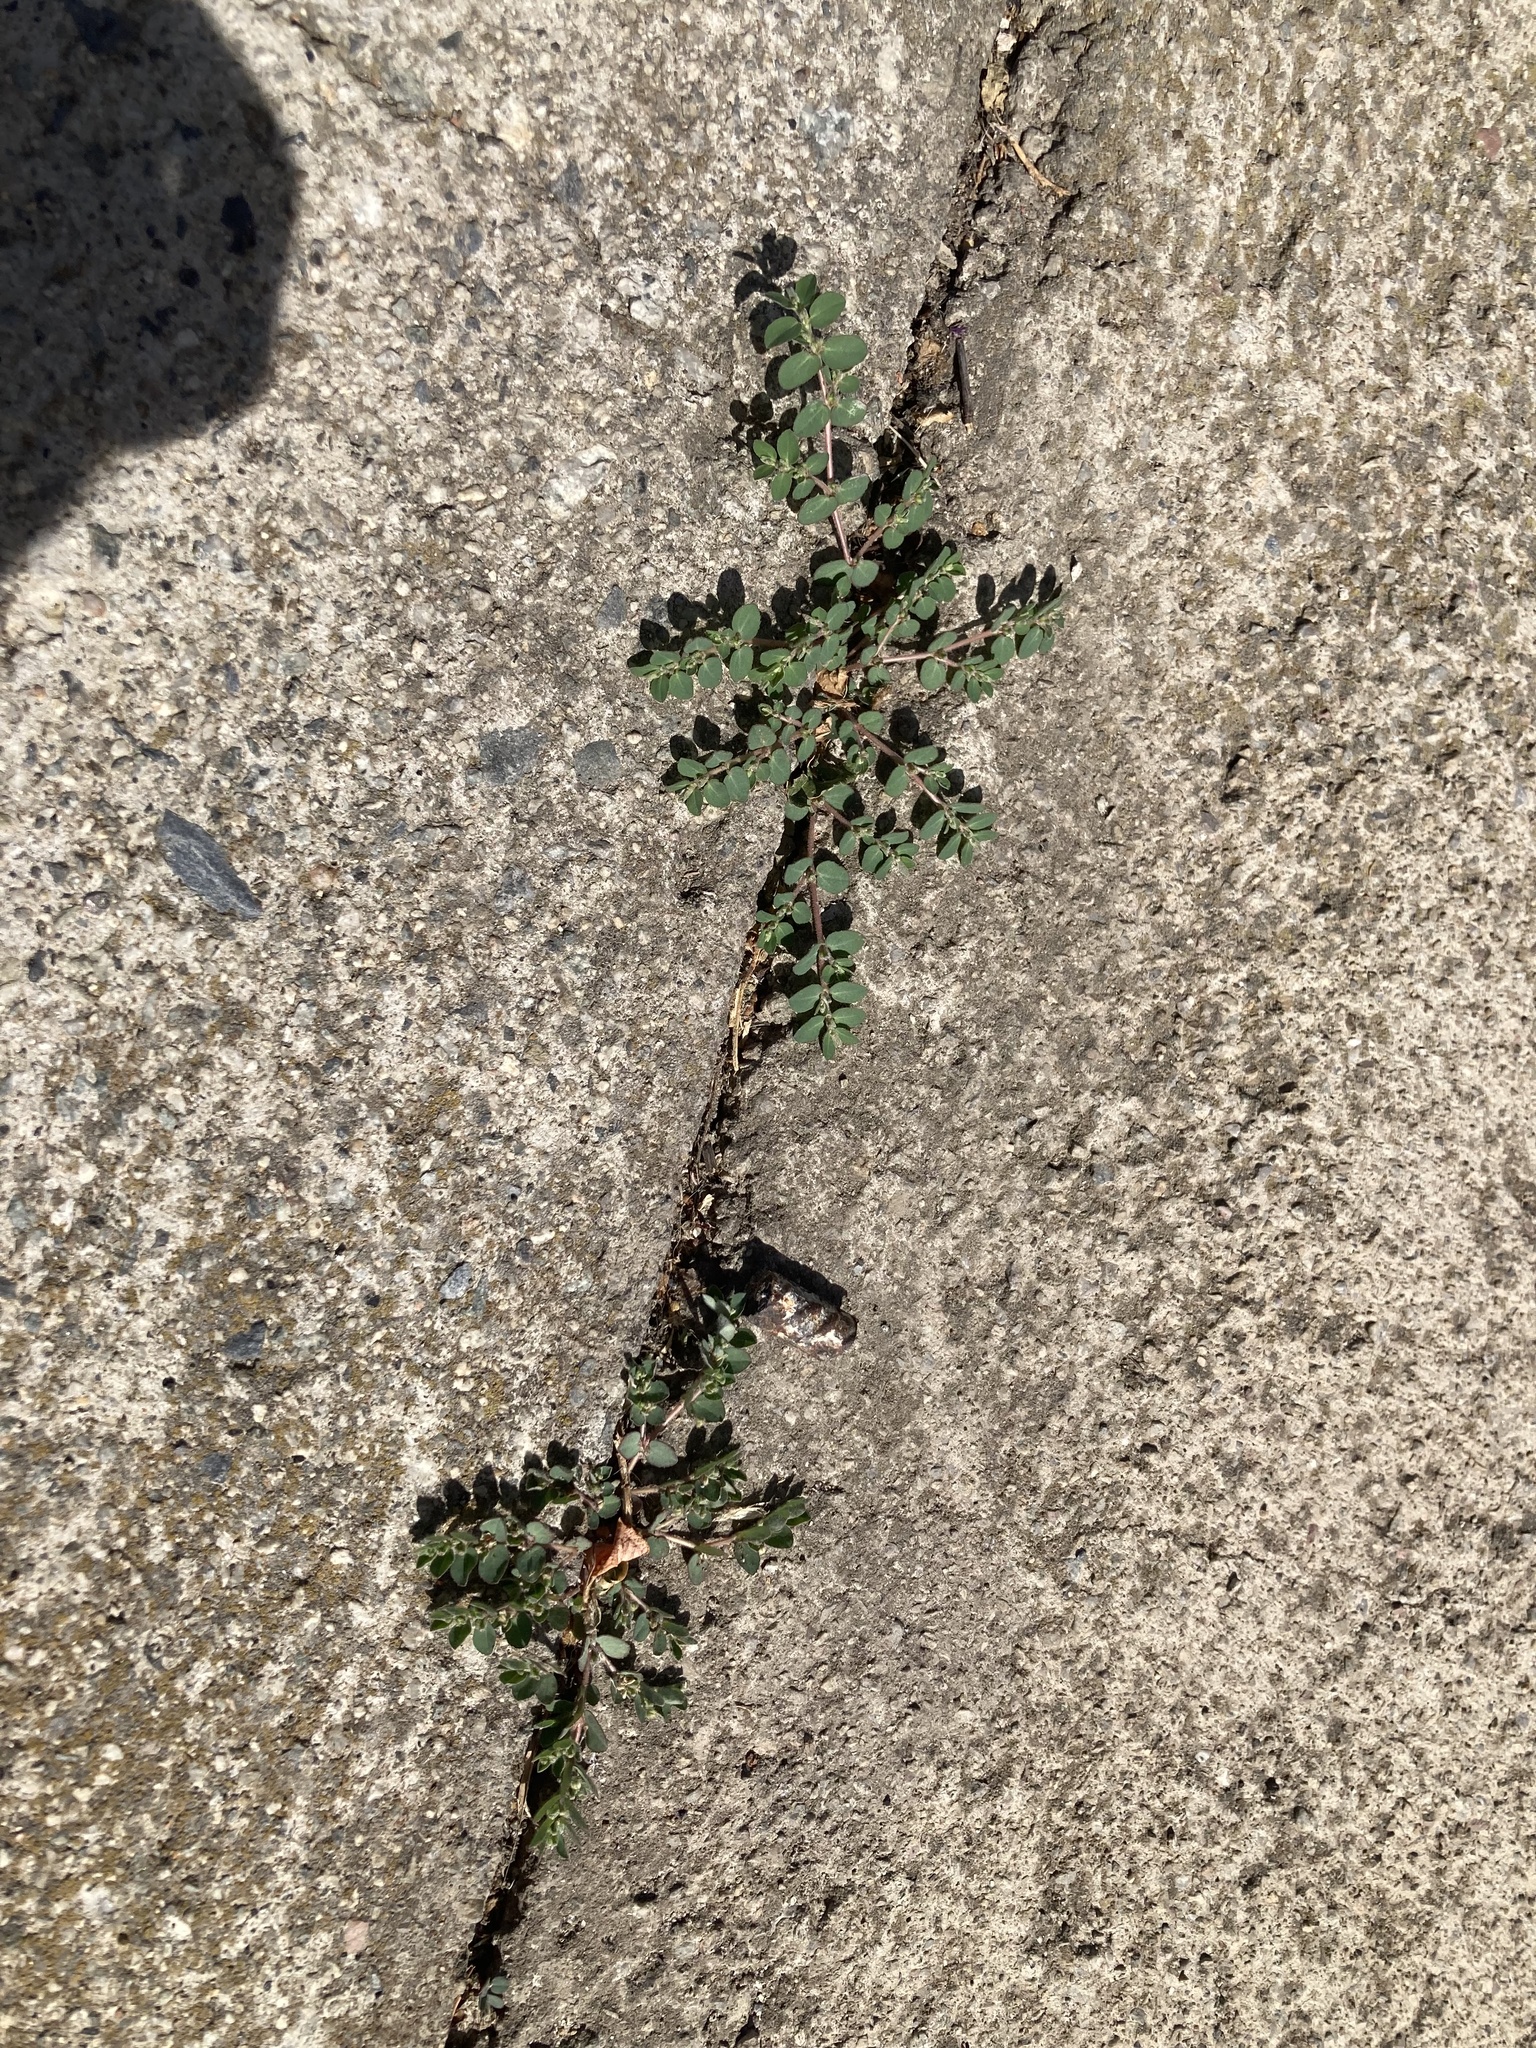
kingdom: Plantae
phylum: Tracheophyta
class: Magnoliopsida
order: Malpighiales
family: Euphorbiaceae
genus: Euphorbia
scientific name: Euphorbia prostrata
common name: Prostrate sandmat
